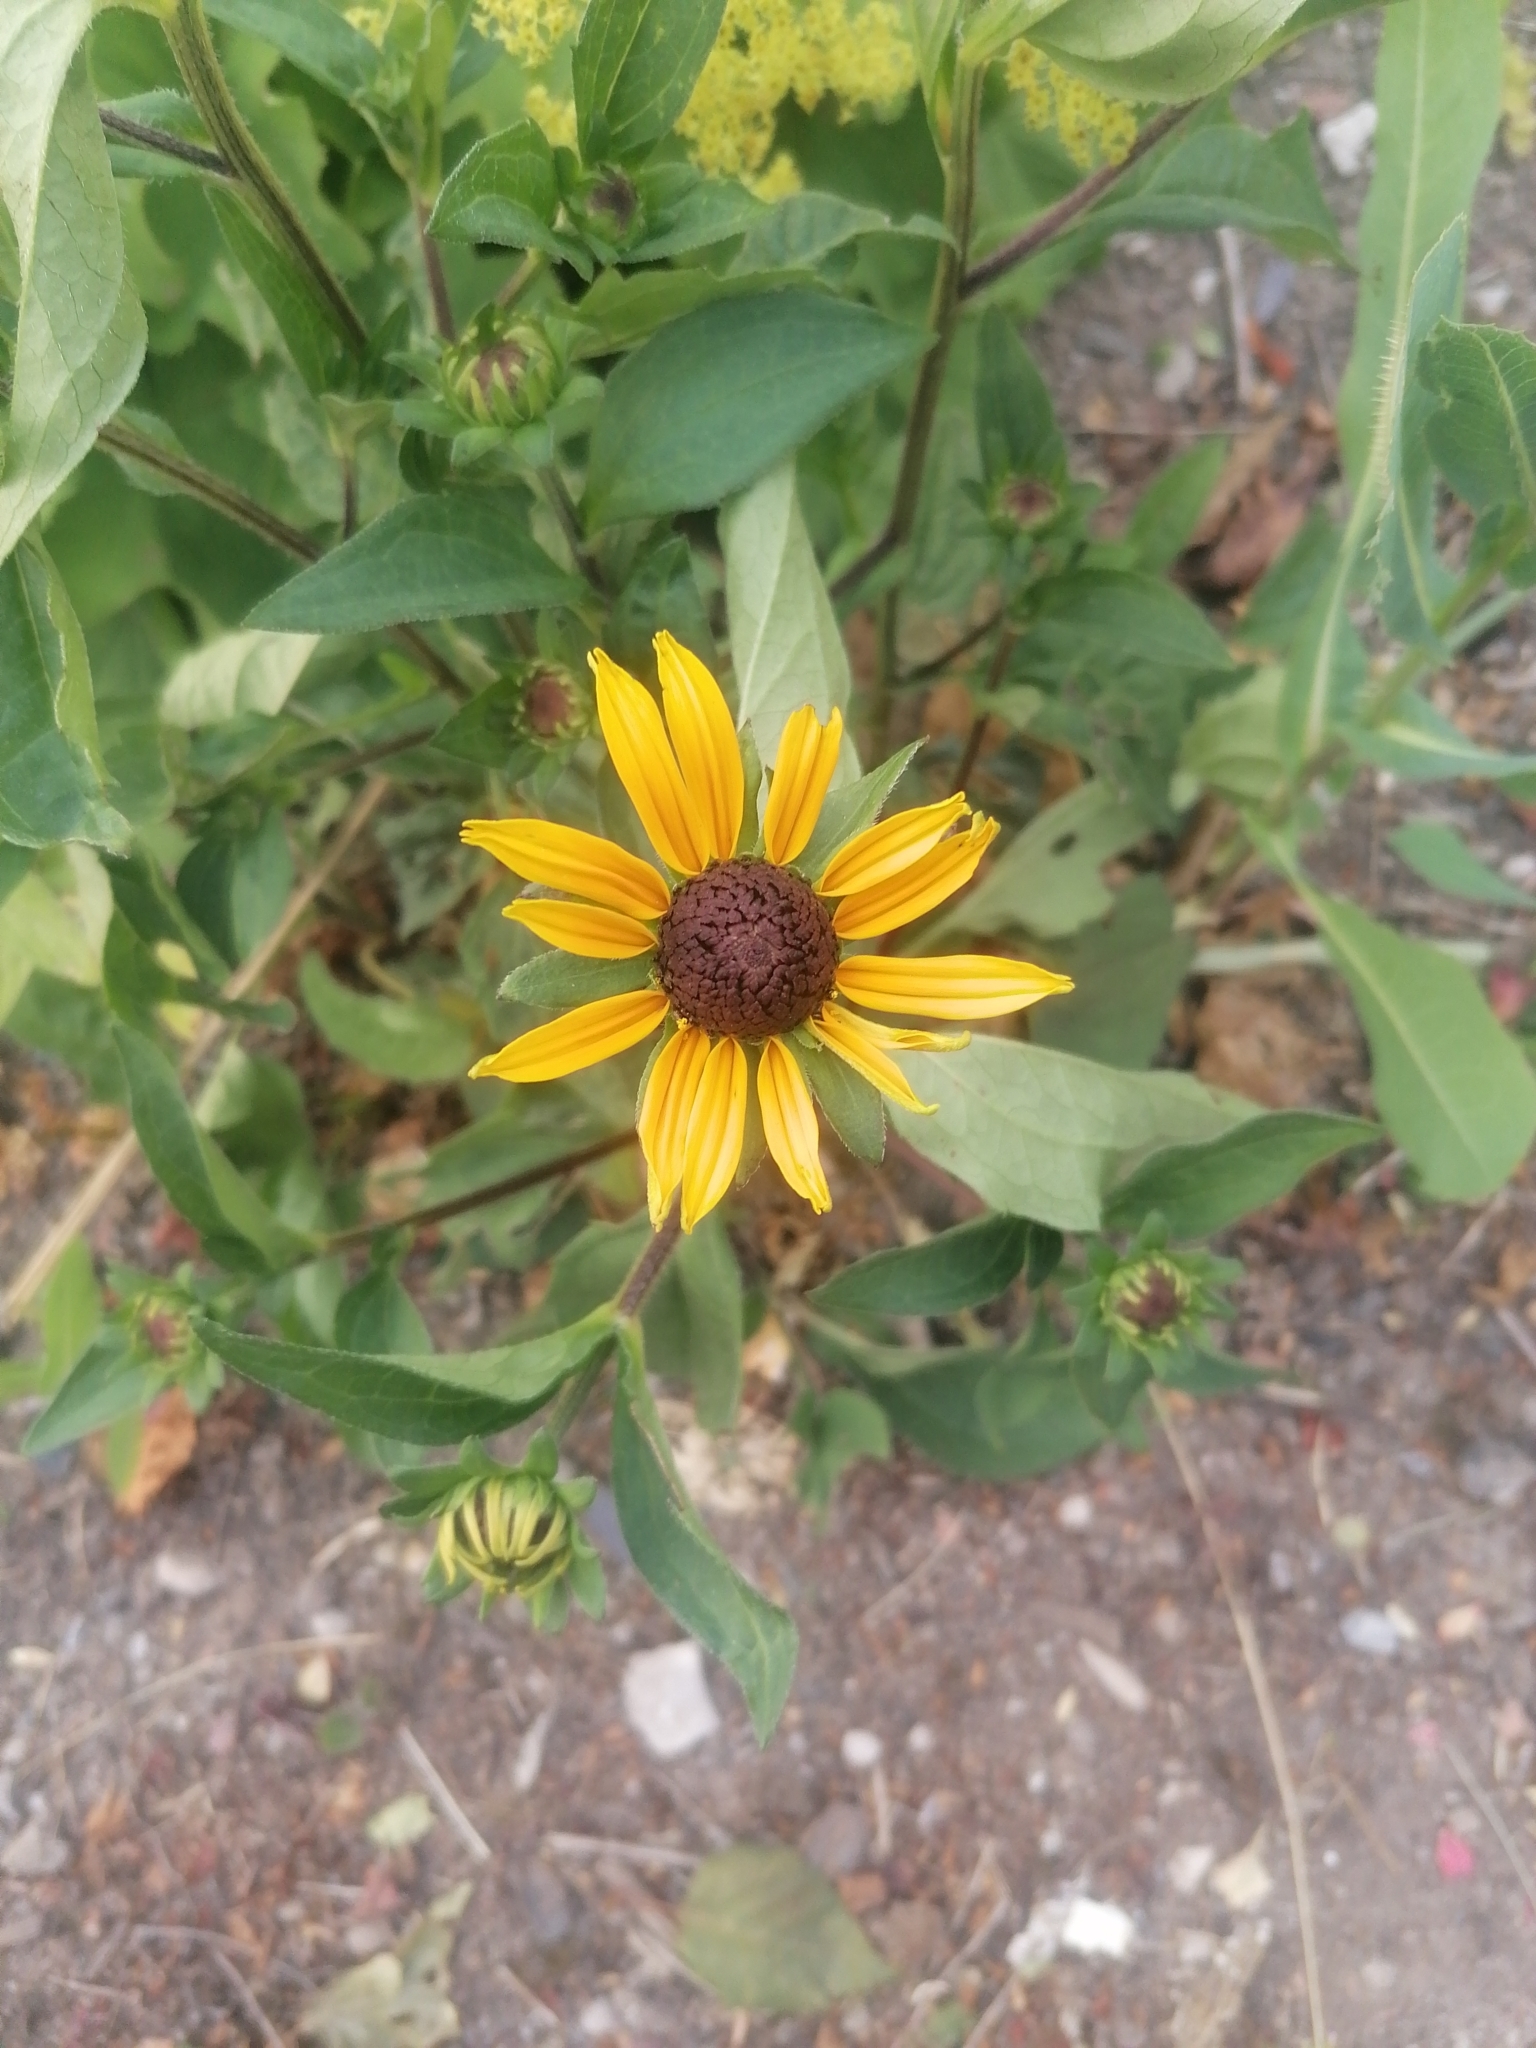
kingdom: Plantae
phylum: Tracheophyta
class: Magnoliopsida
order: Asterales
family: Asteraceae
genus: Rudbeckia
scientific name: Rudbeckia hirta
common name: Black-eyed-susan
